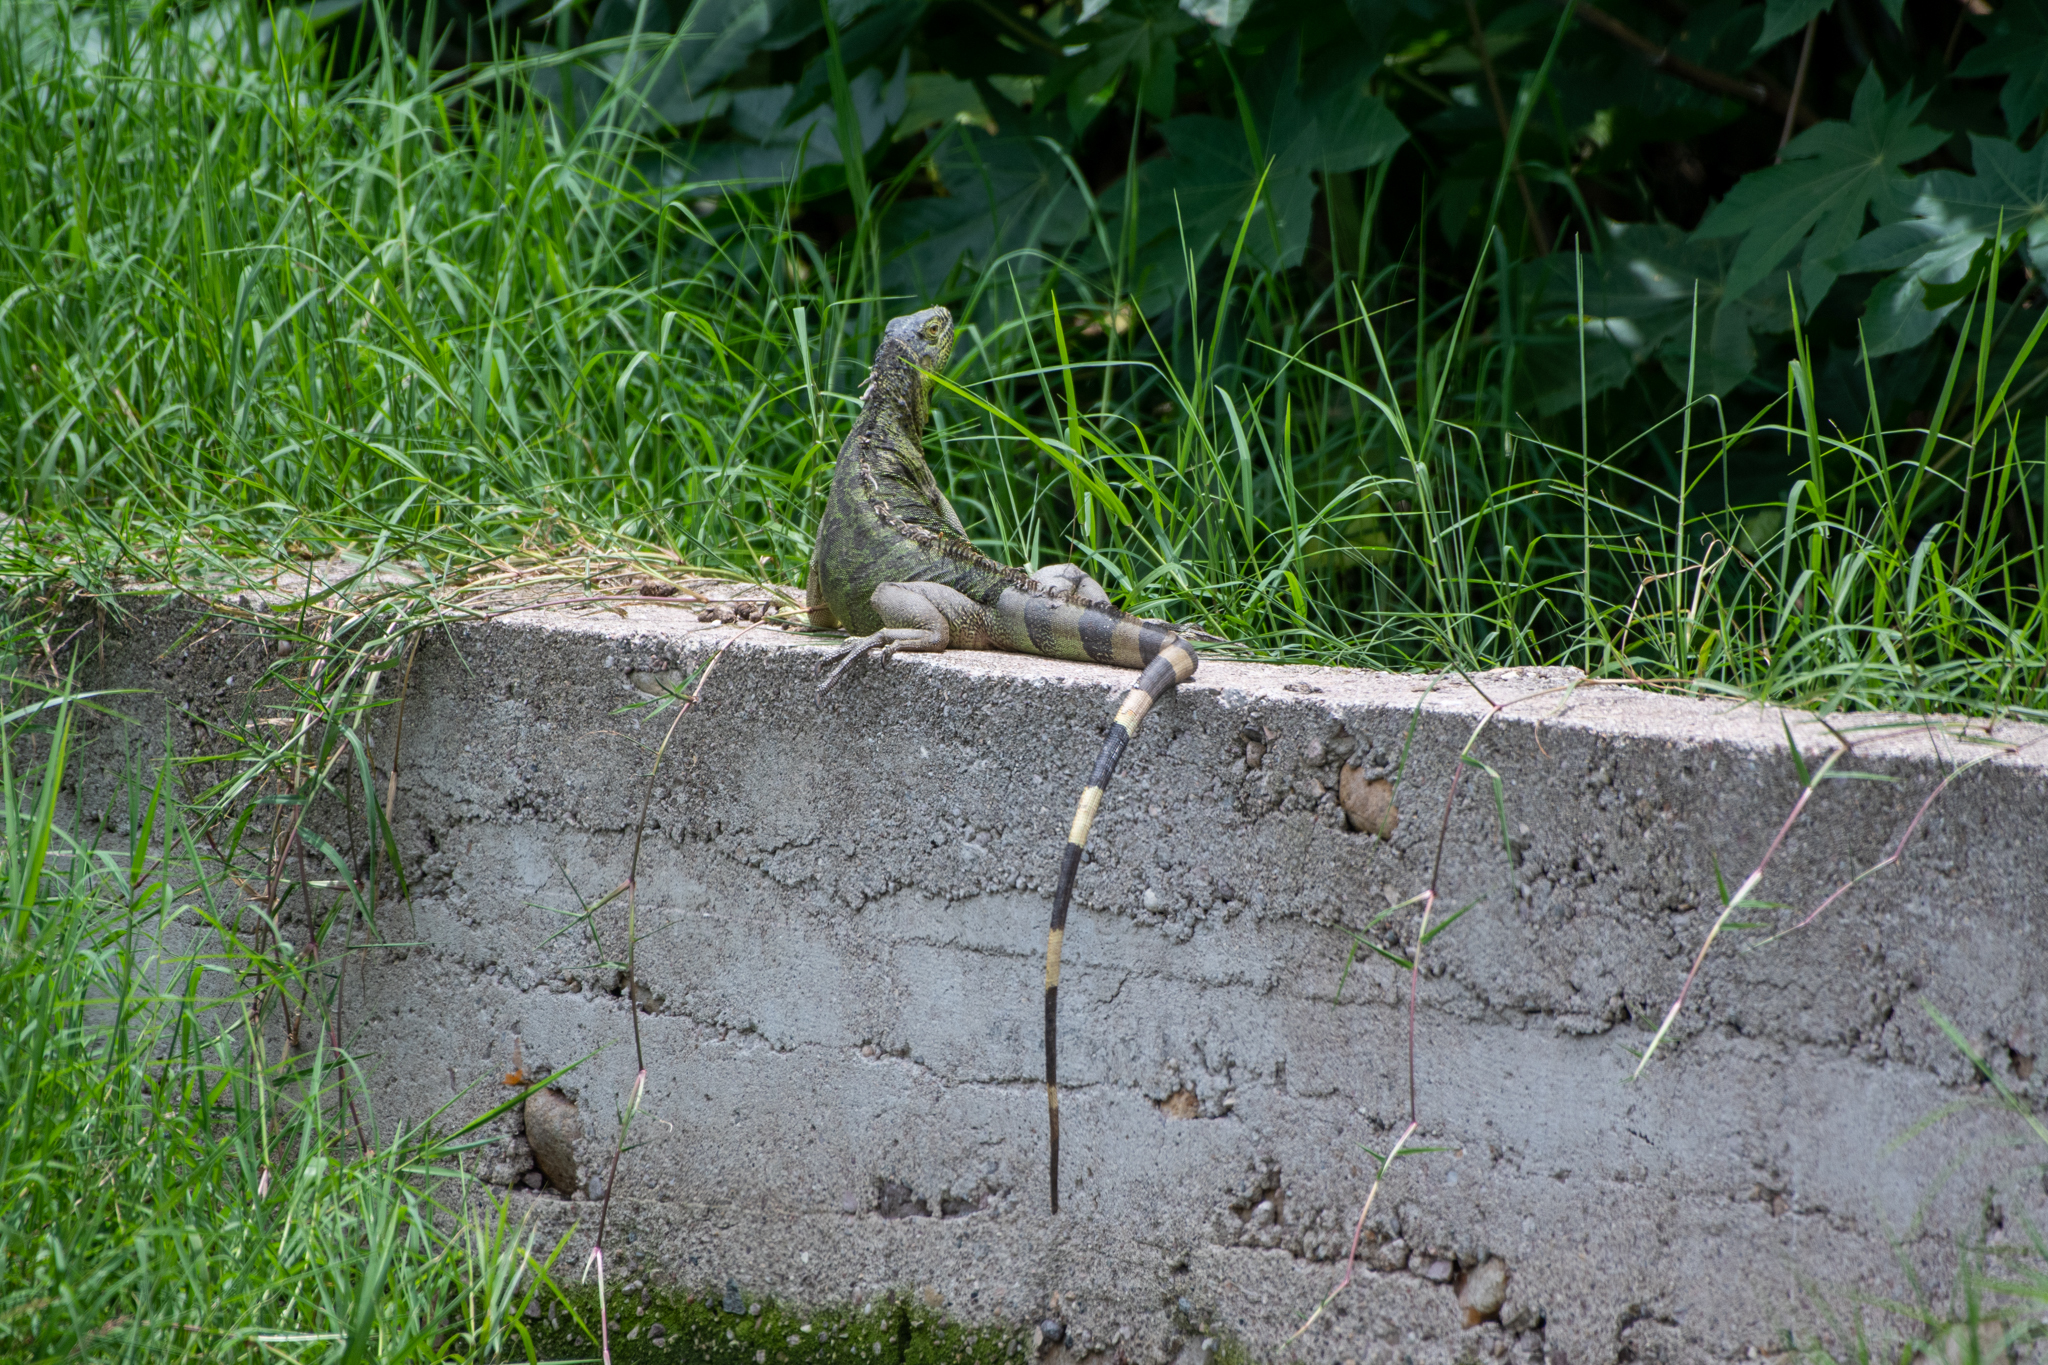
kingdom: Animalia
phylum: Chordata
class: Squamata
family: Iguanidae
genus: Iguana
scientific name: Iguana iguana
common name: Green iguana
